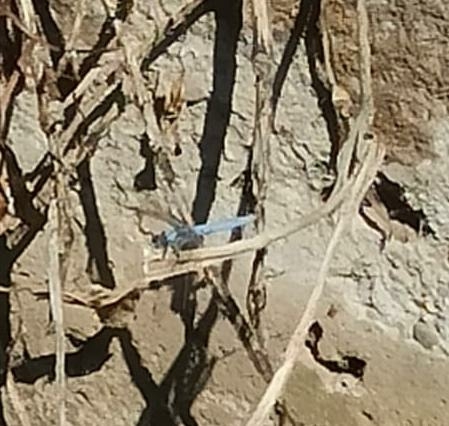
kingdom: Animalia
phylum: Arthropoda
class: Insecta
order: Odonata
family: Libellulidae
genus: Orthetrum
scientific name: Orthetrum brunneum
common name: Southern skimmer
